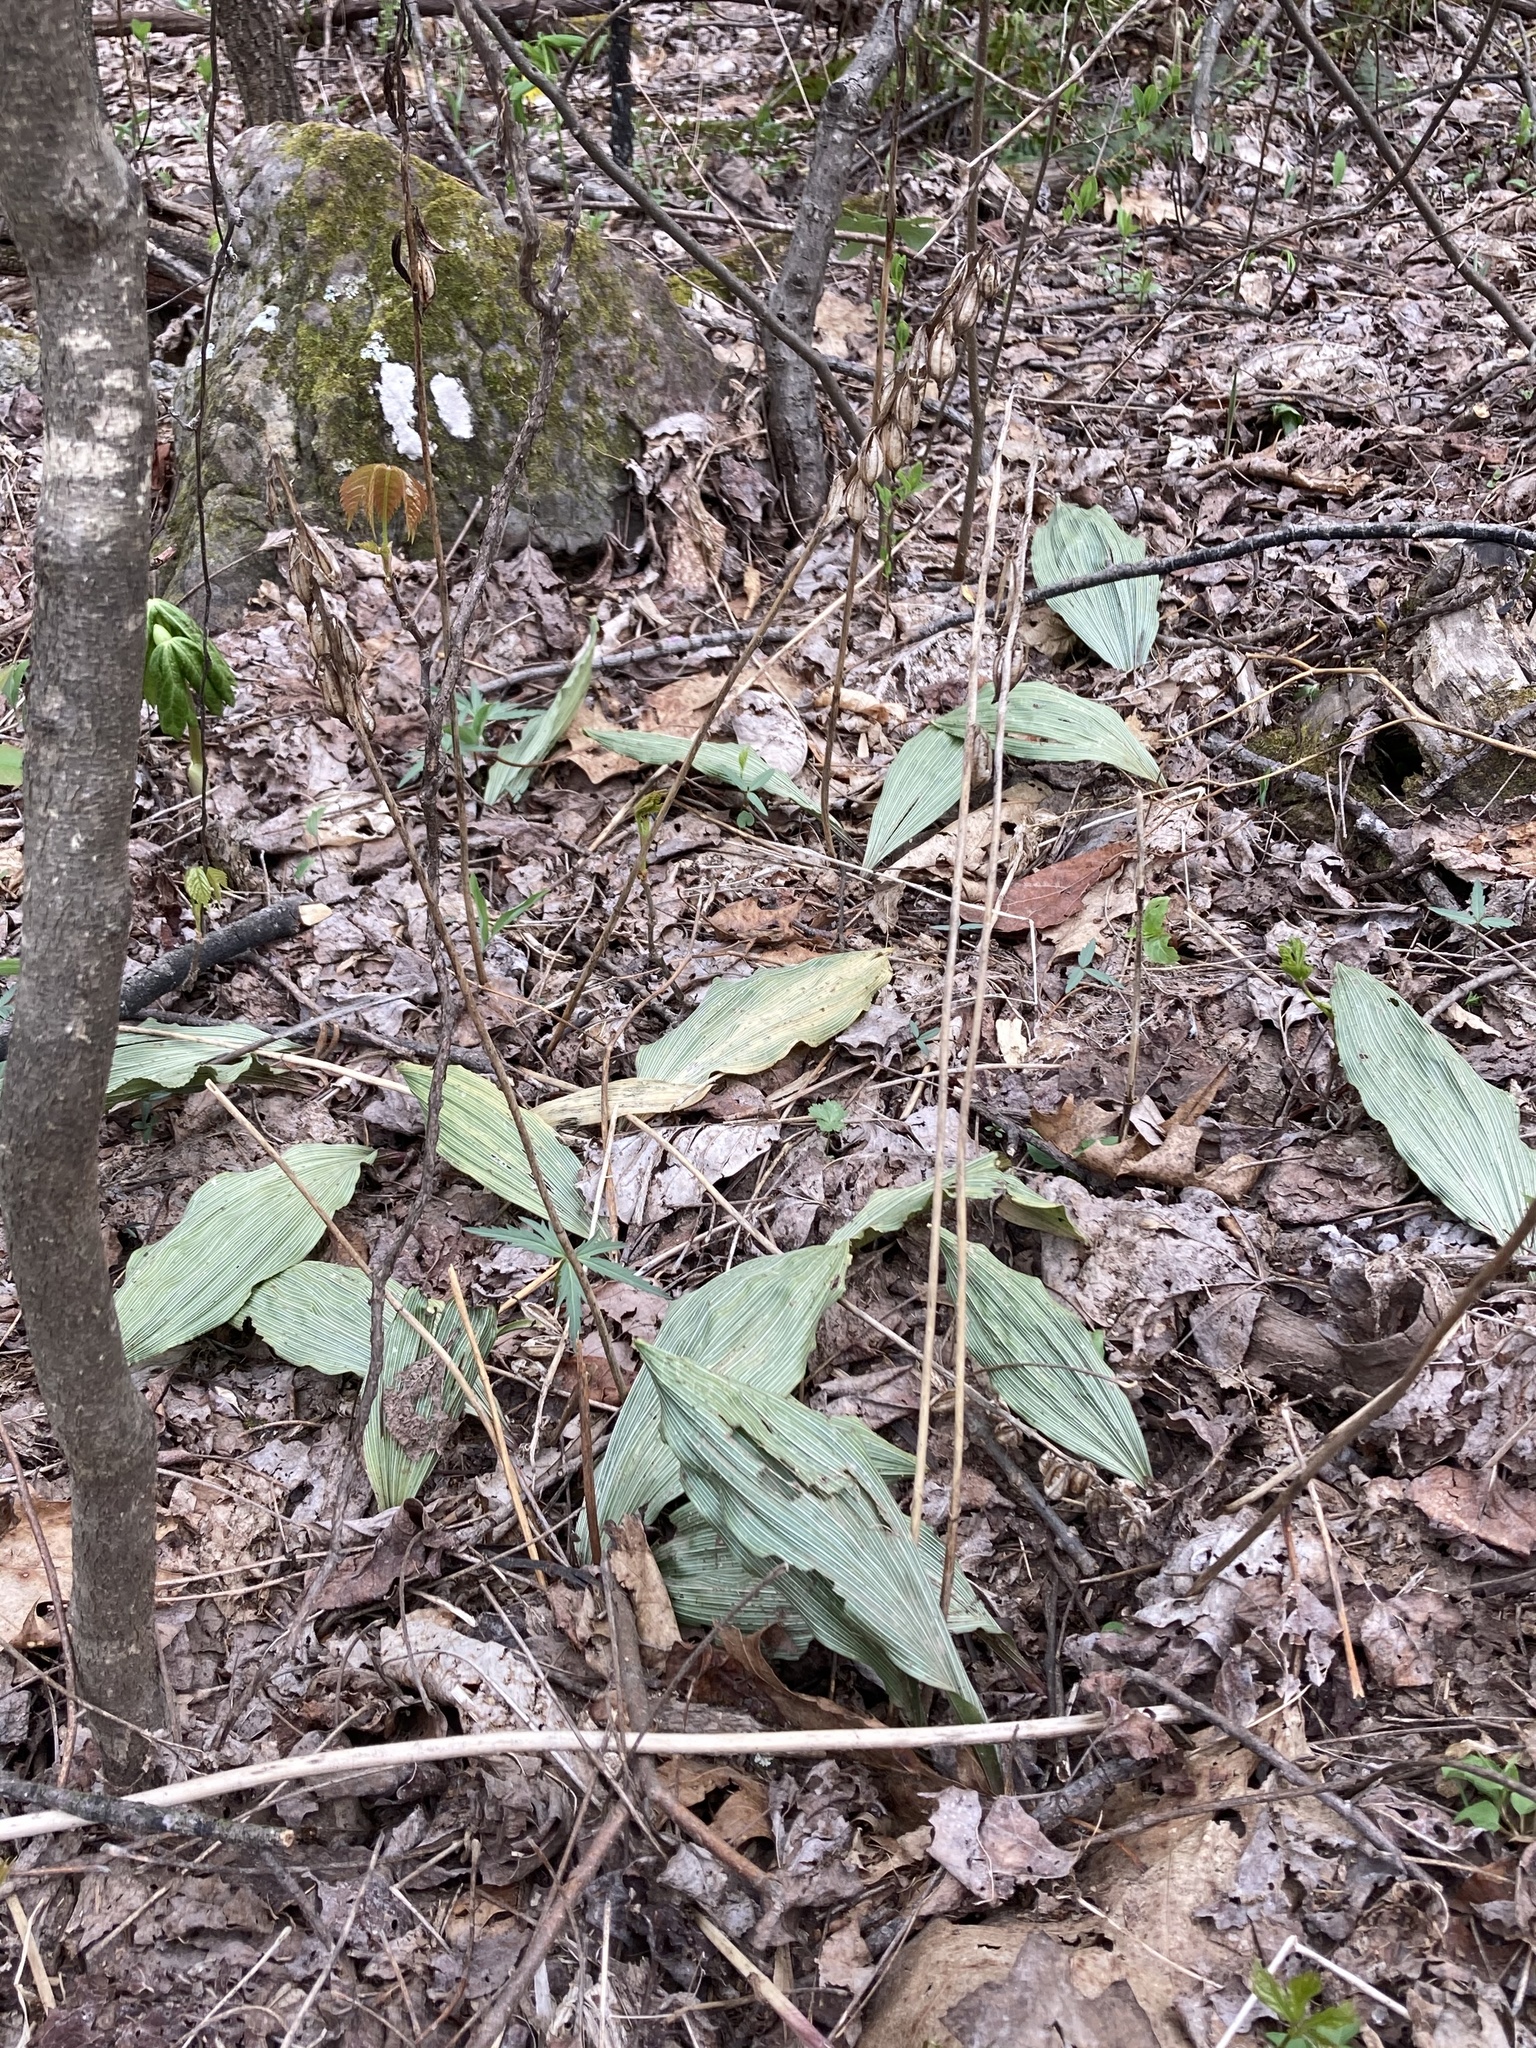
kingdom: Plantae
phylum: Tracheophyta
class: Liliopsida
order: Asparagales
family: Orchidaceae
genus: Aplectrum
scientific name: Aplectrum hyemale
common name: Adam-and-eve
